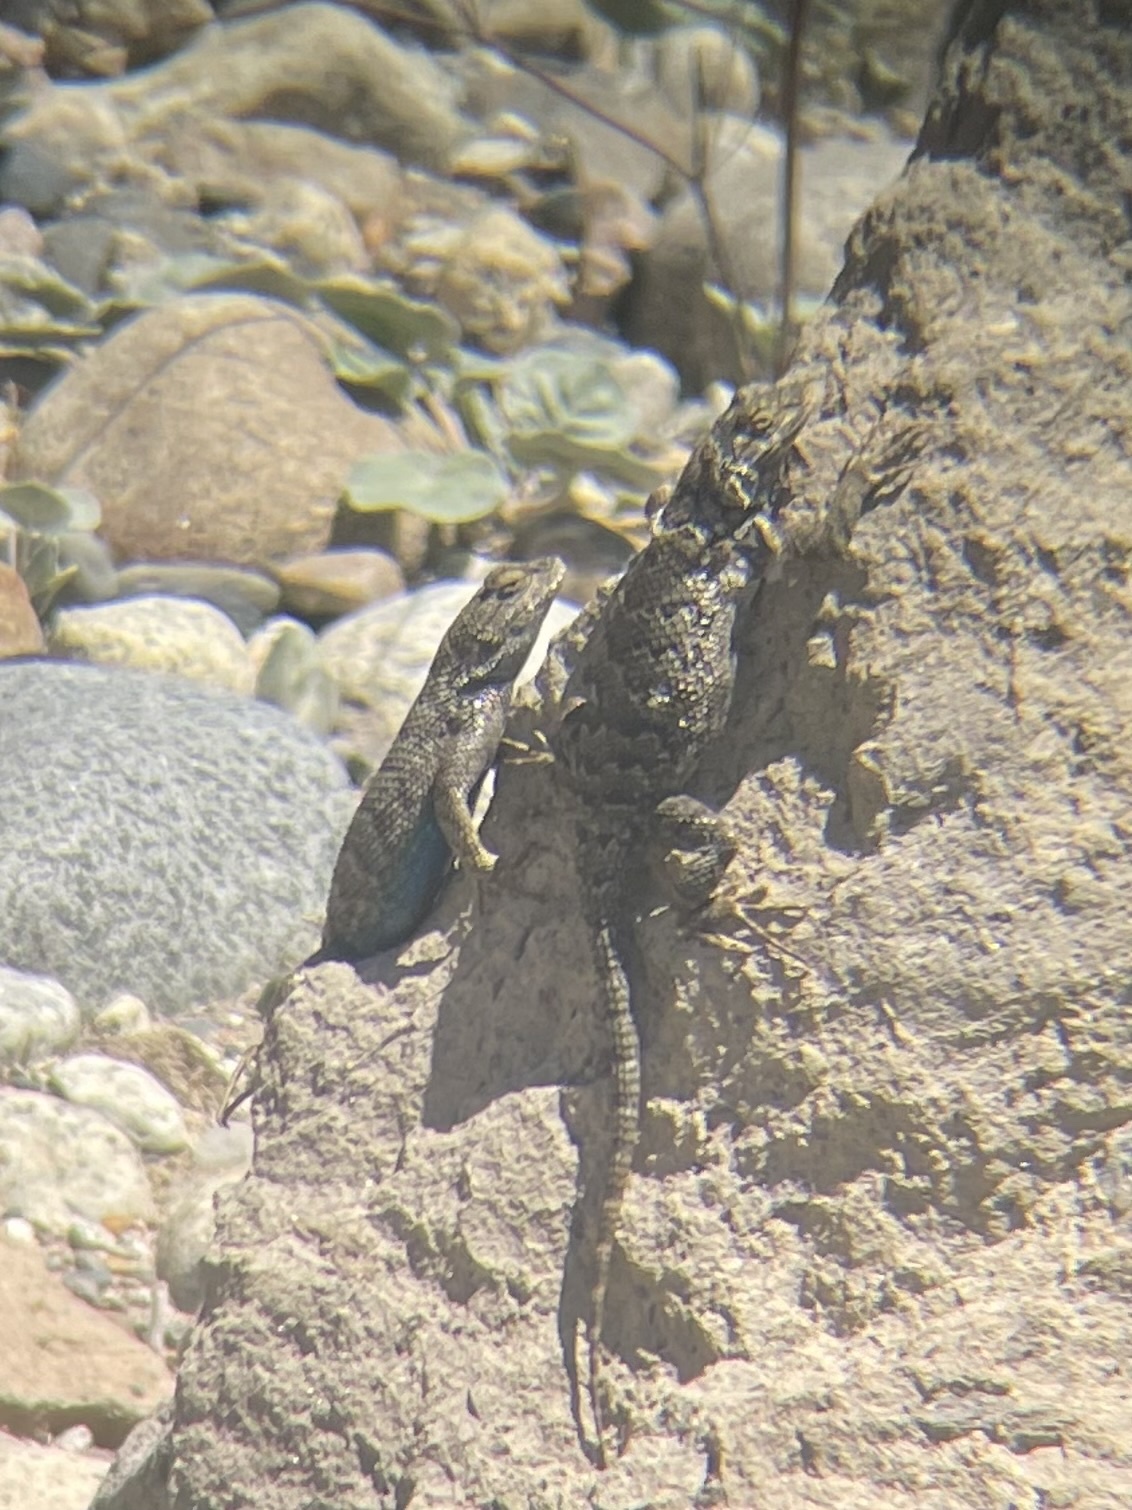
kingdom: Animalia
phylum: Chordata
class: Squamata
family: Phrynosomatidae
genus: Sceloporus
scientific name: Sceloporus occidentalis
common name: Western fence lizard
